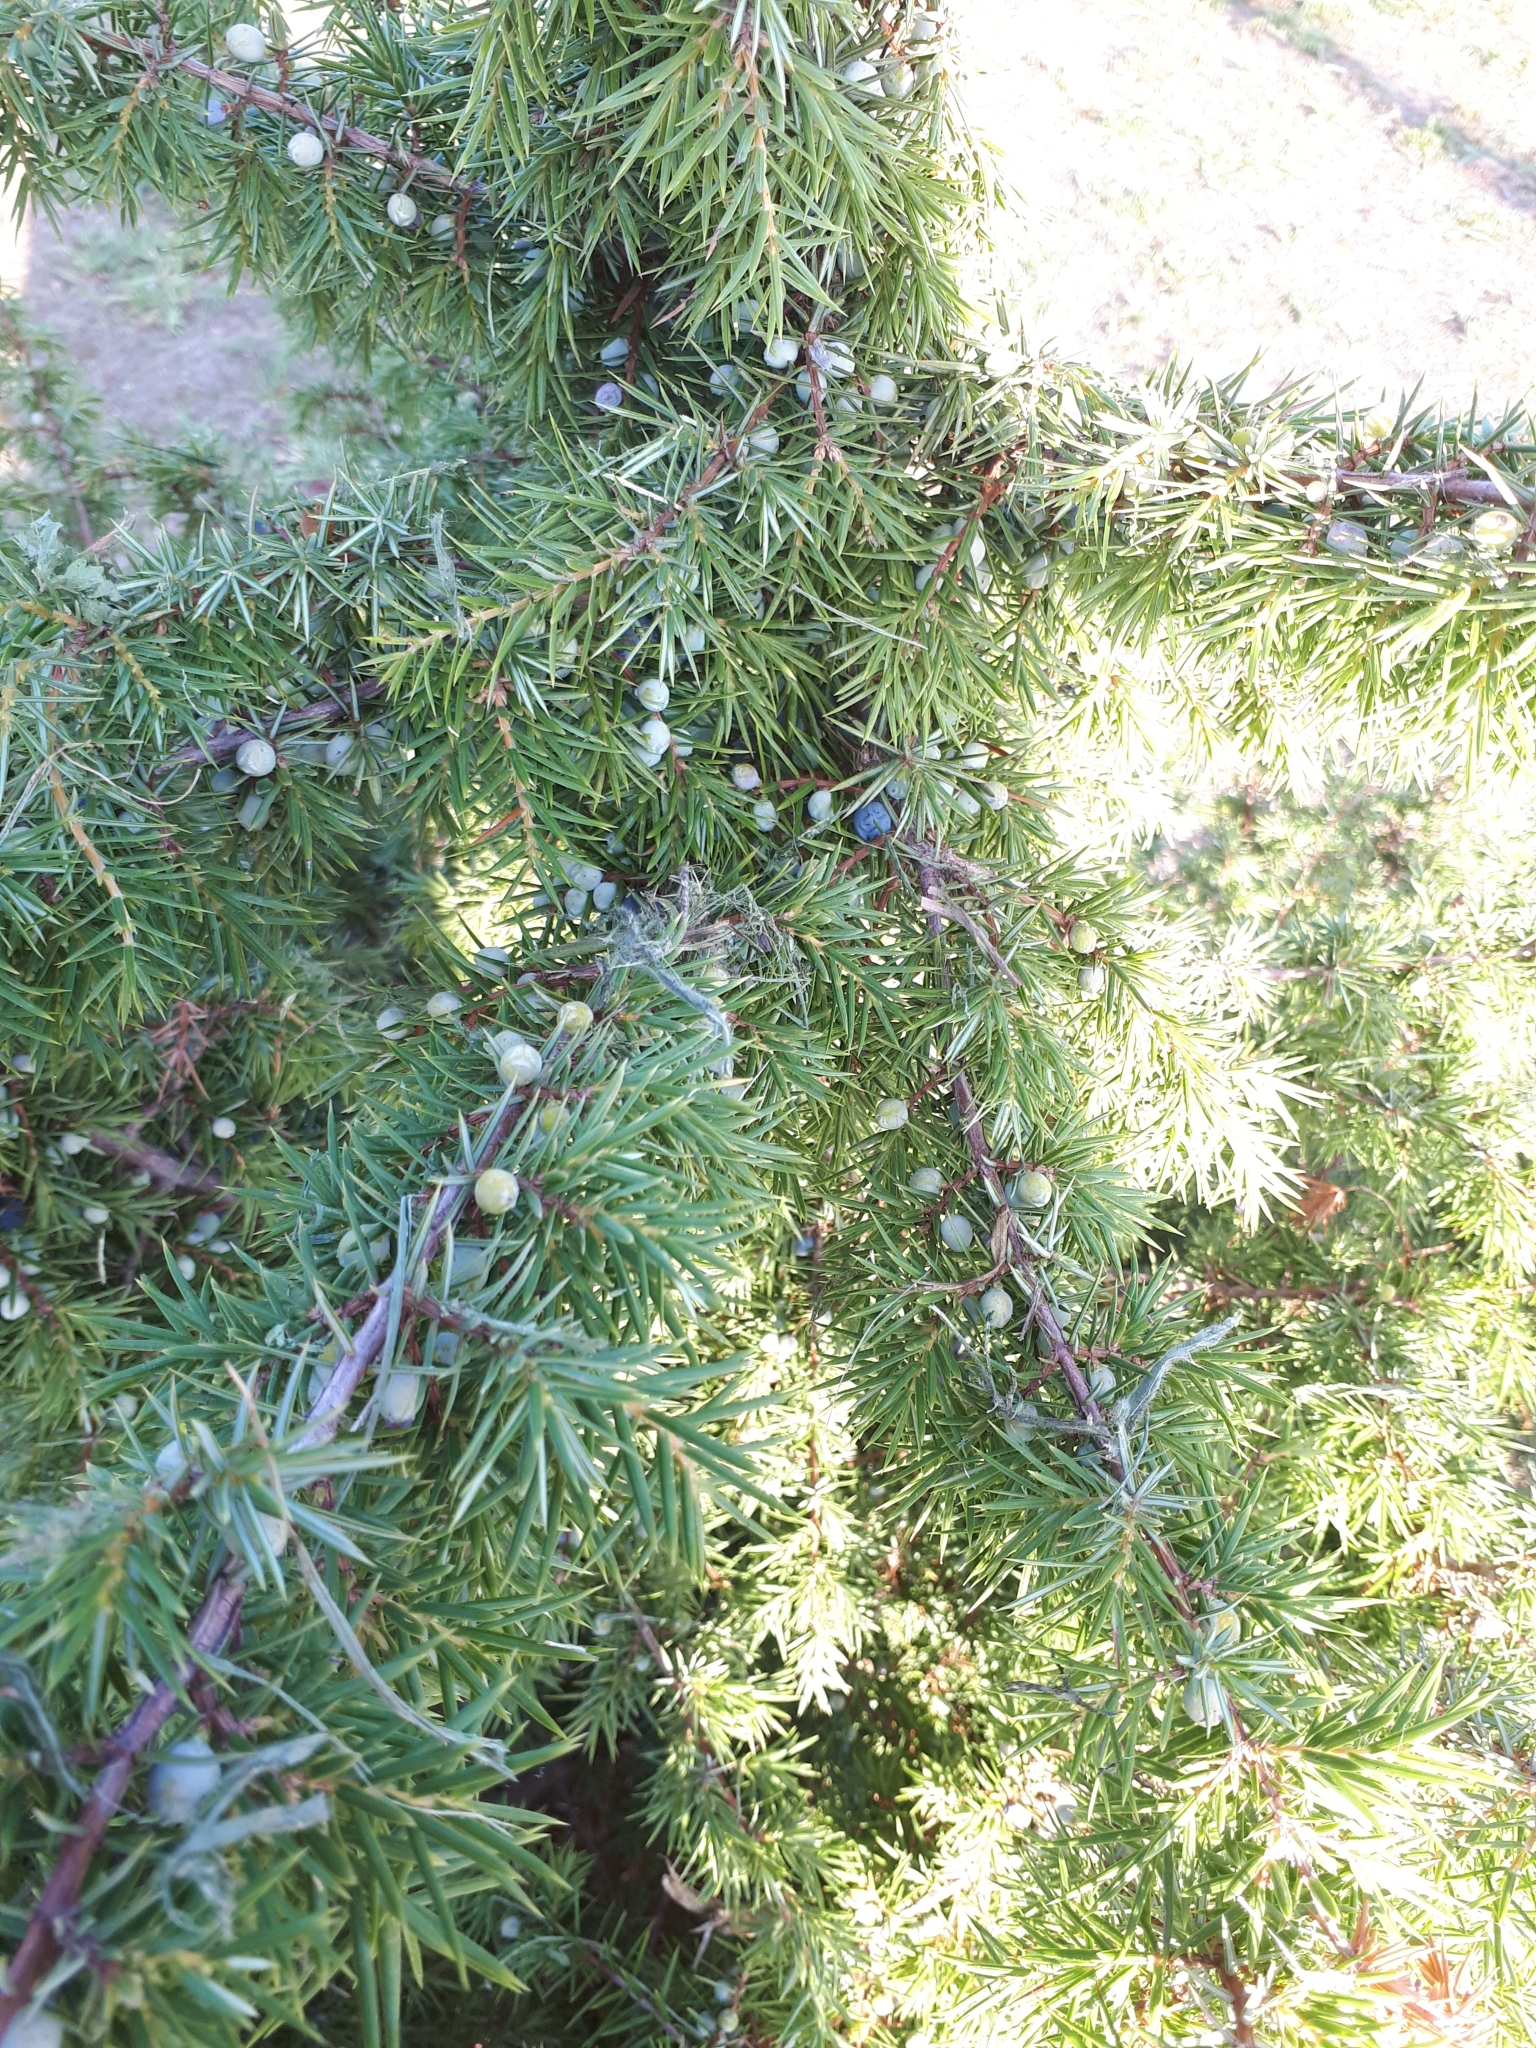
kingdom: Plantae
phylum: Tracheophyta
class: Pinopsida
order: Pinales
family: Cupressaceae
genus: Juniperus
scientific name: Juniperus communis
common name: Common juniper
